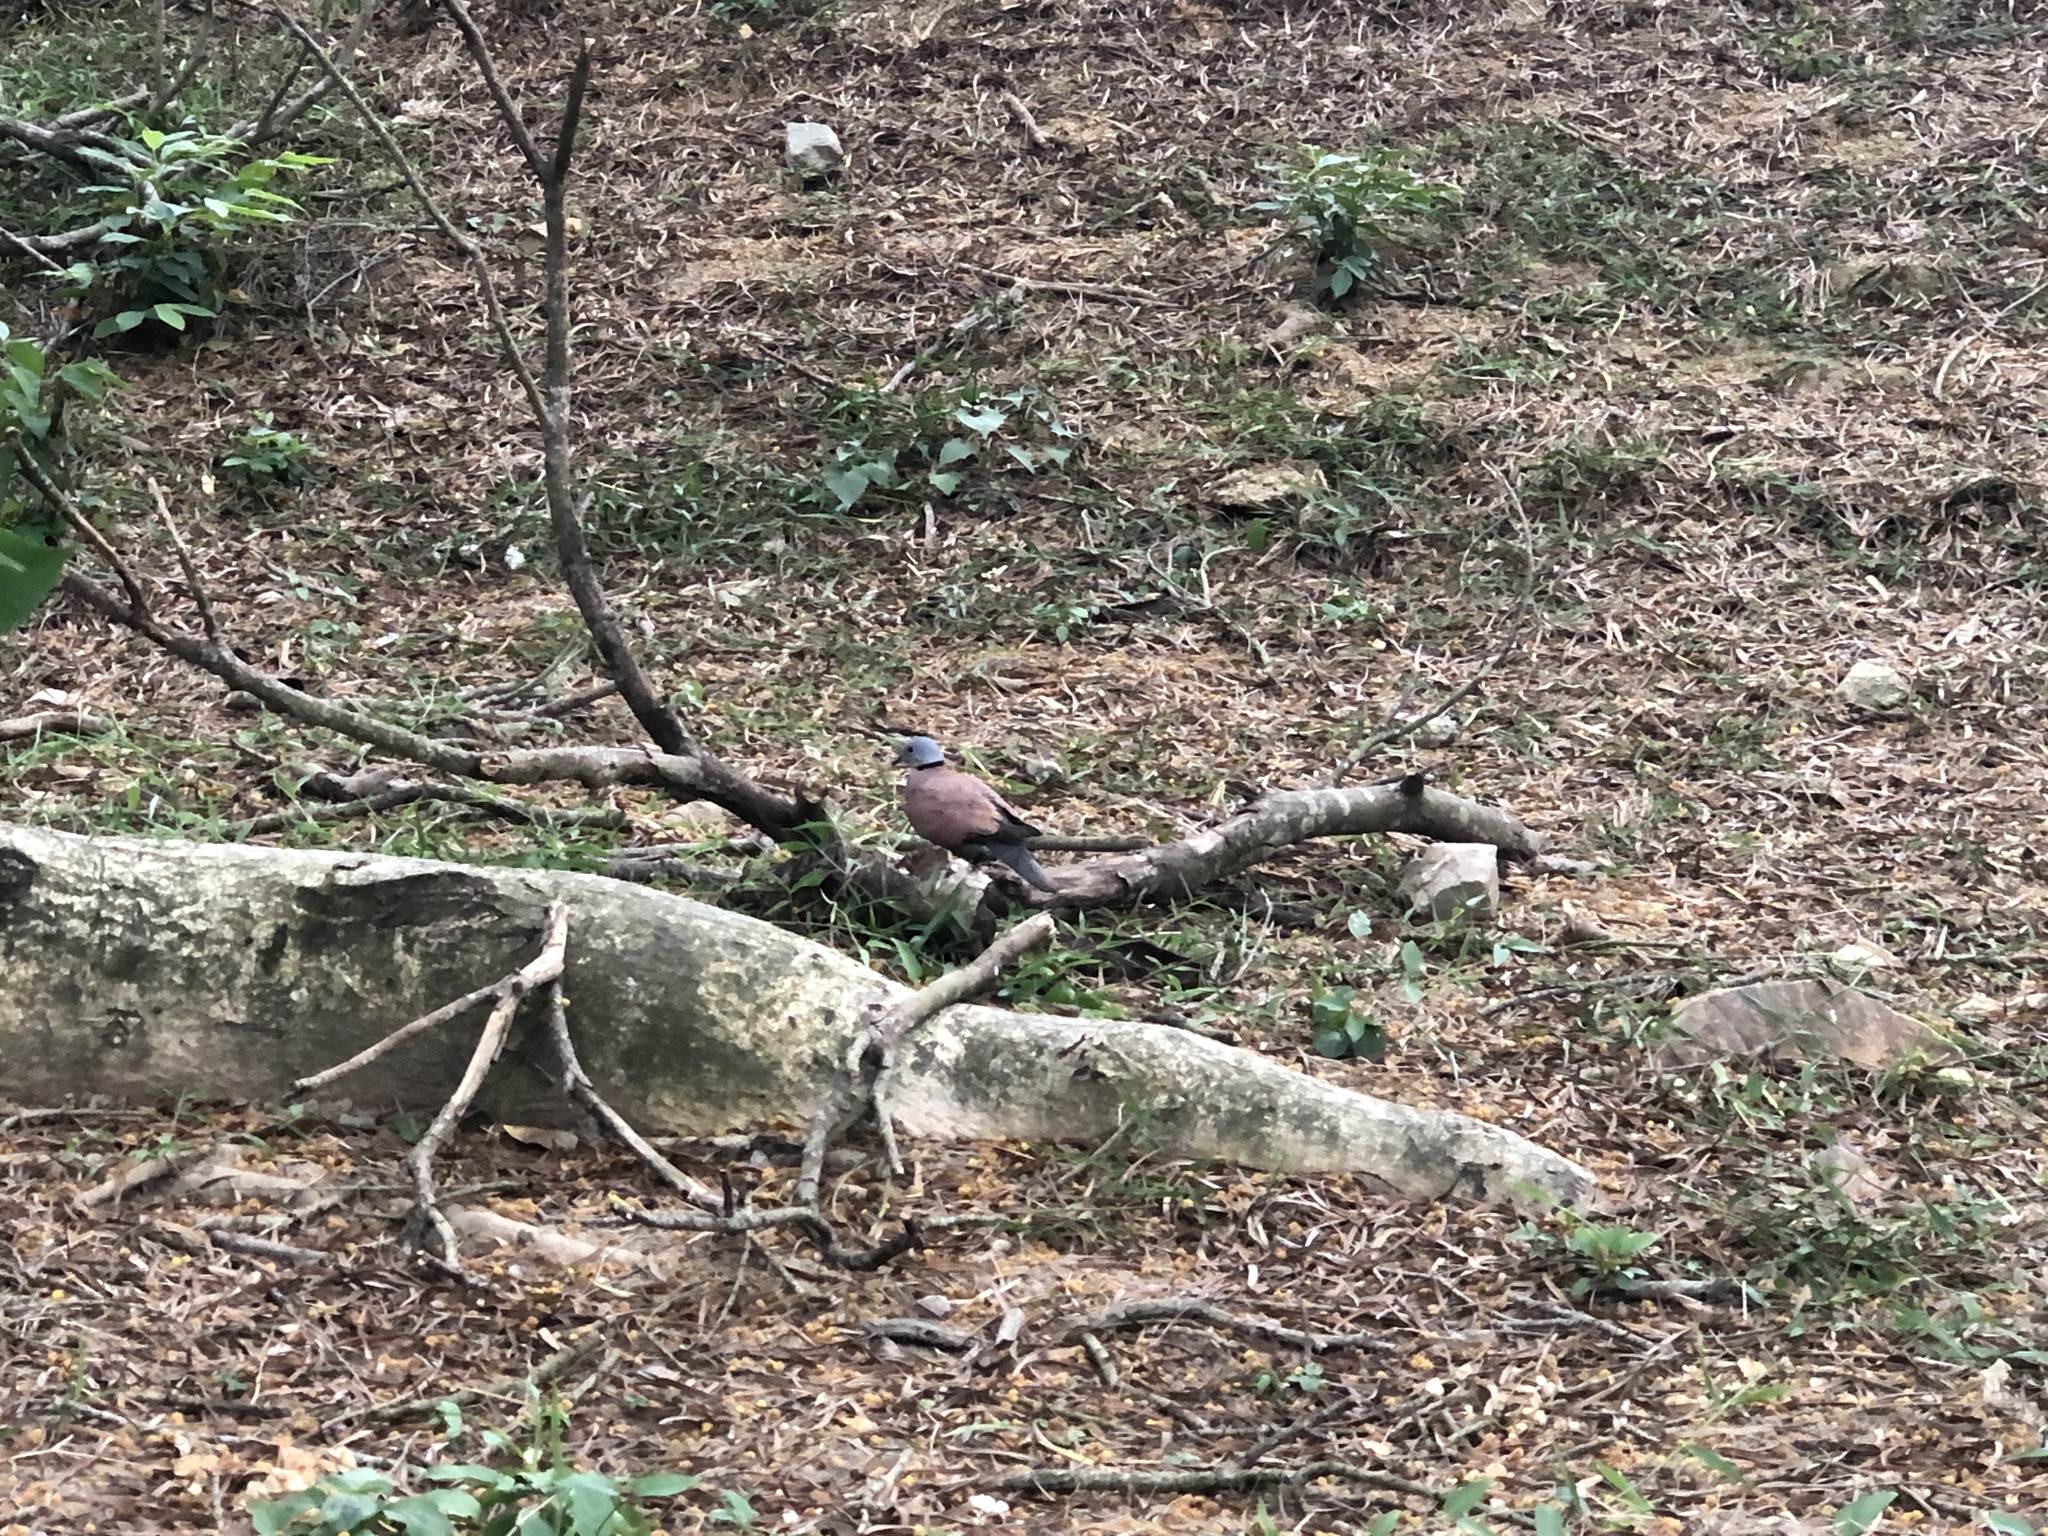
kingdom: Animalia
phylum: Chordata
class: Aves
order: Columbiformes
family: Columbidae
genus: Streptopelia
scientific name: Streptopelia tranquebarica
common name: Red turtle dove
